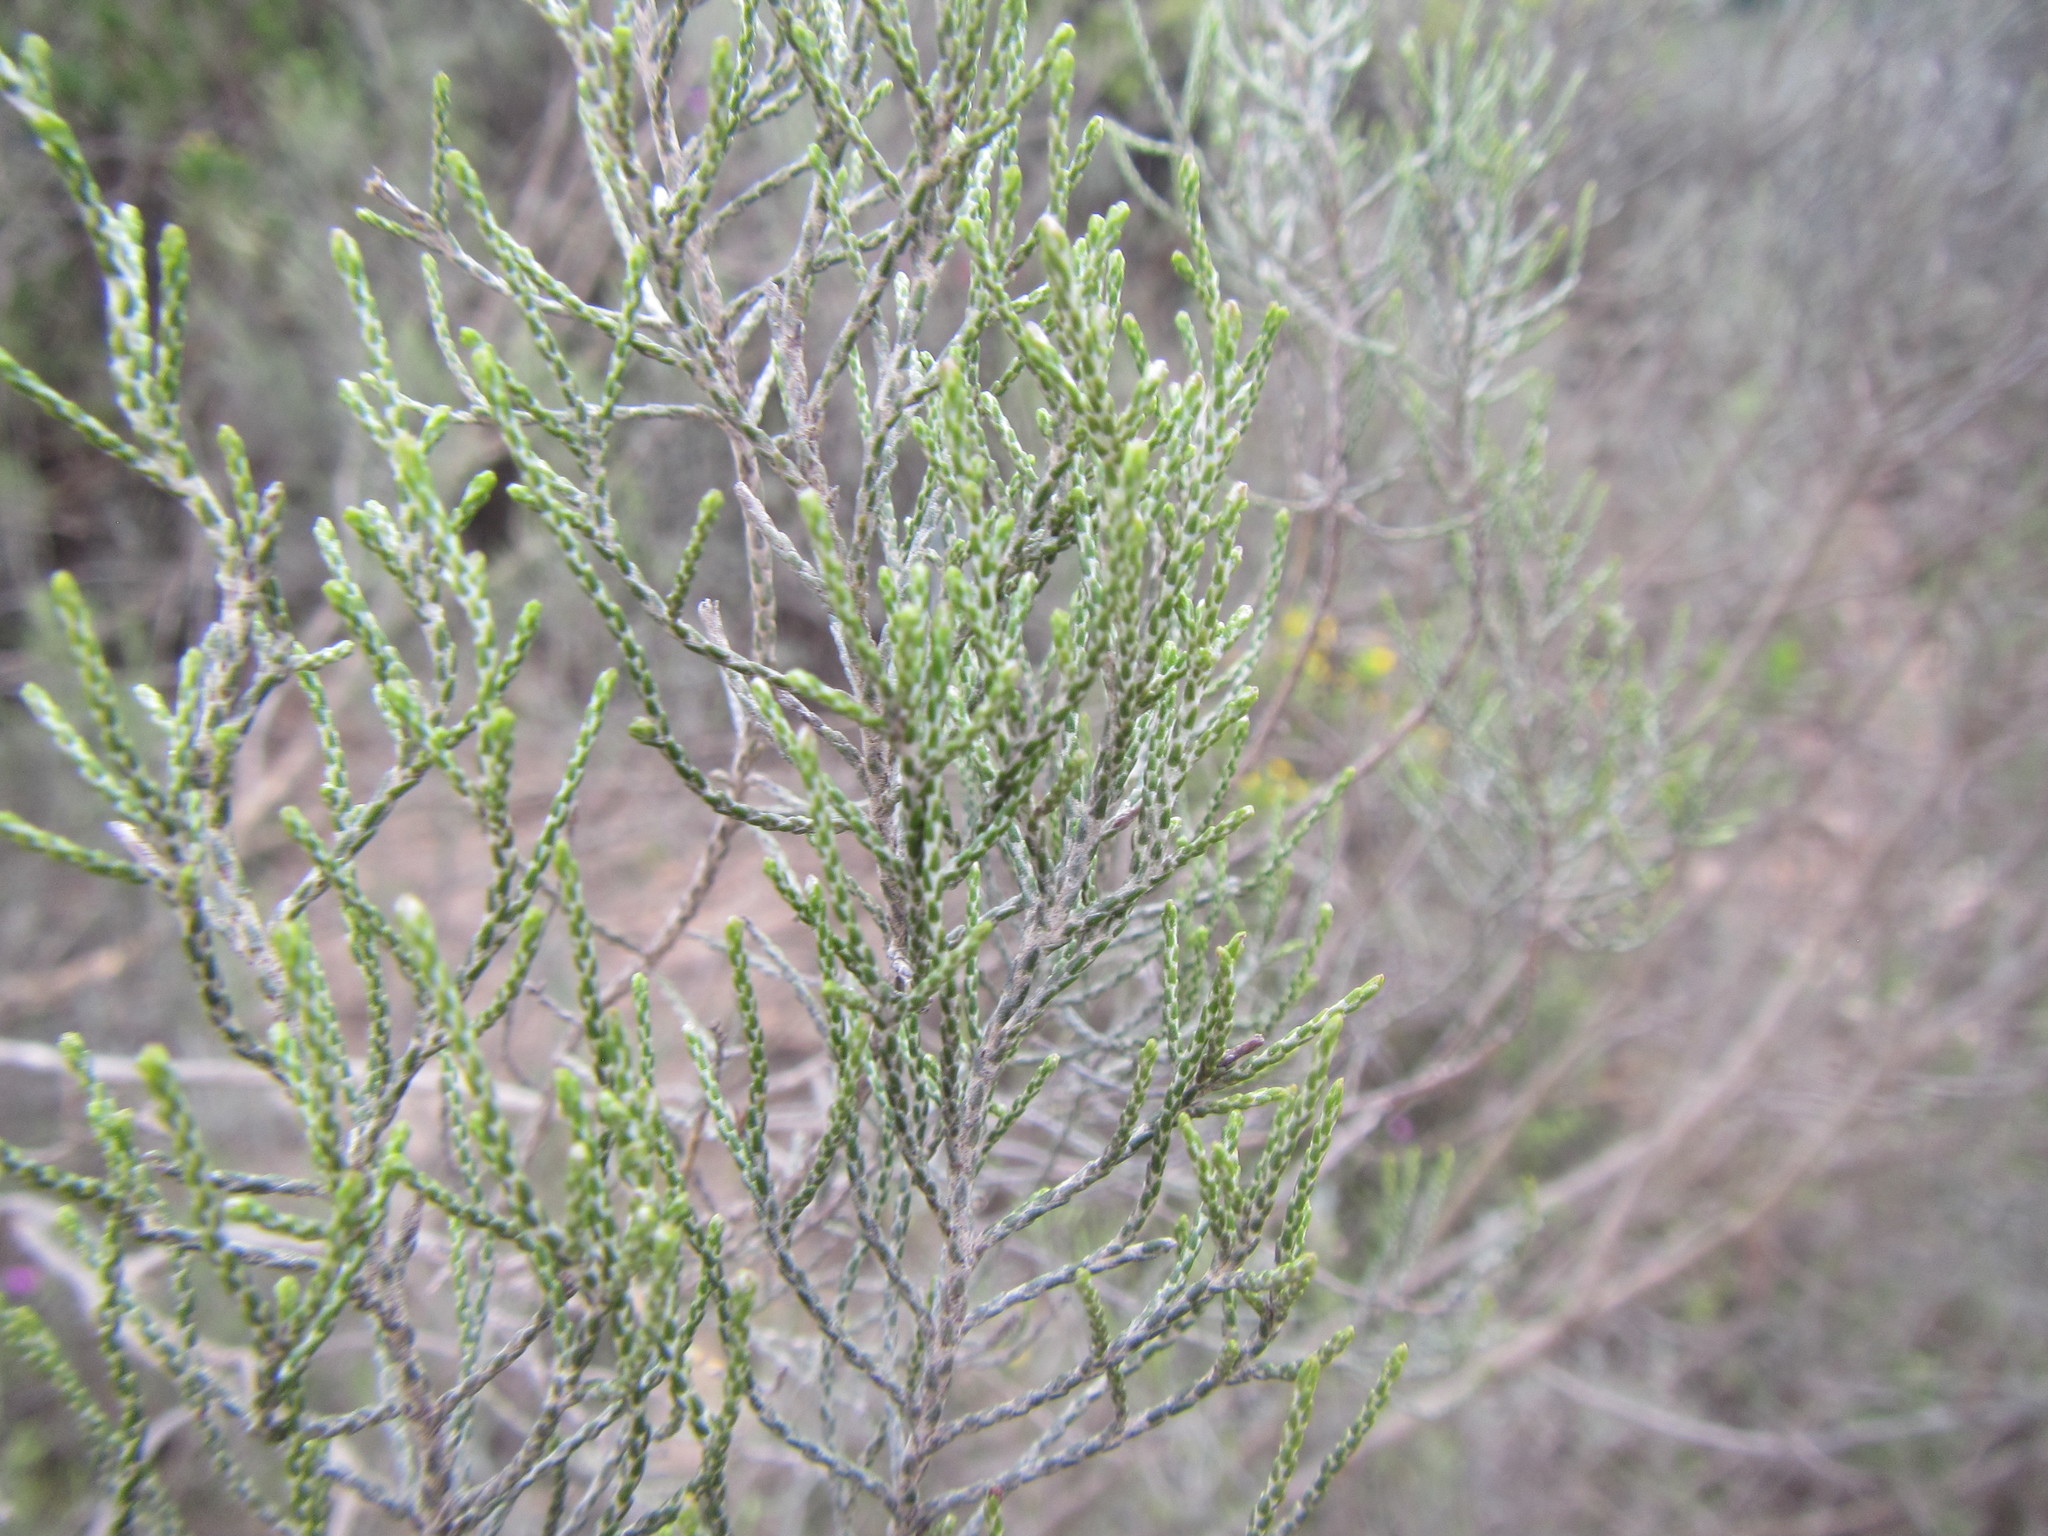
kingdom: Plantae
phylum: Tracheophyta
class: Magnoliopsida
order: Asterales
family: Asteraceae
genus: Dicerothamnus
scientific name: Dicerothamnus rhinocerotis
